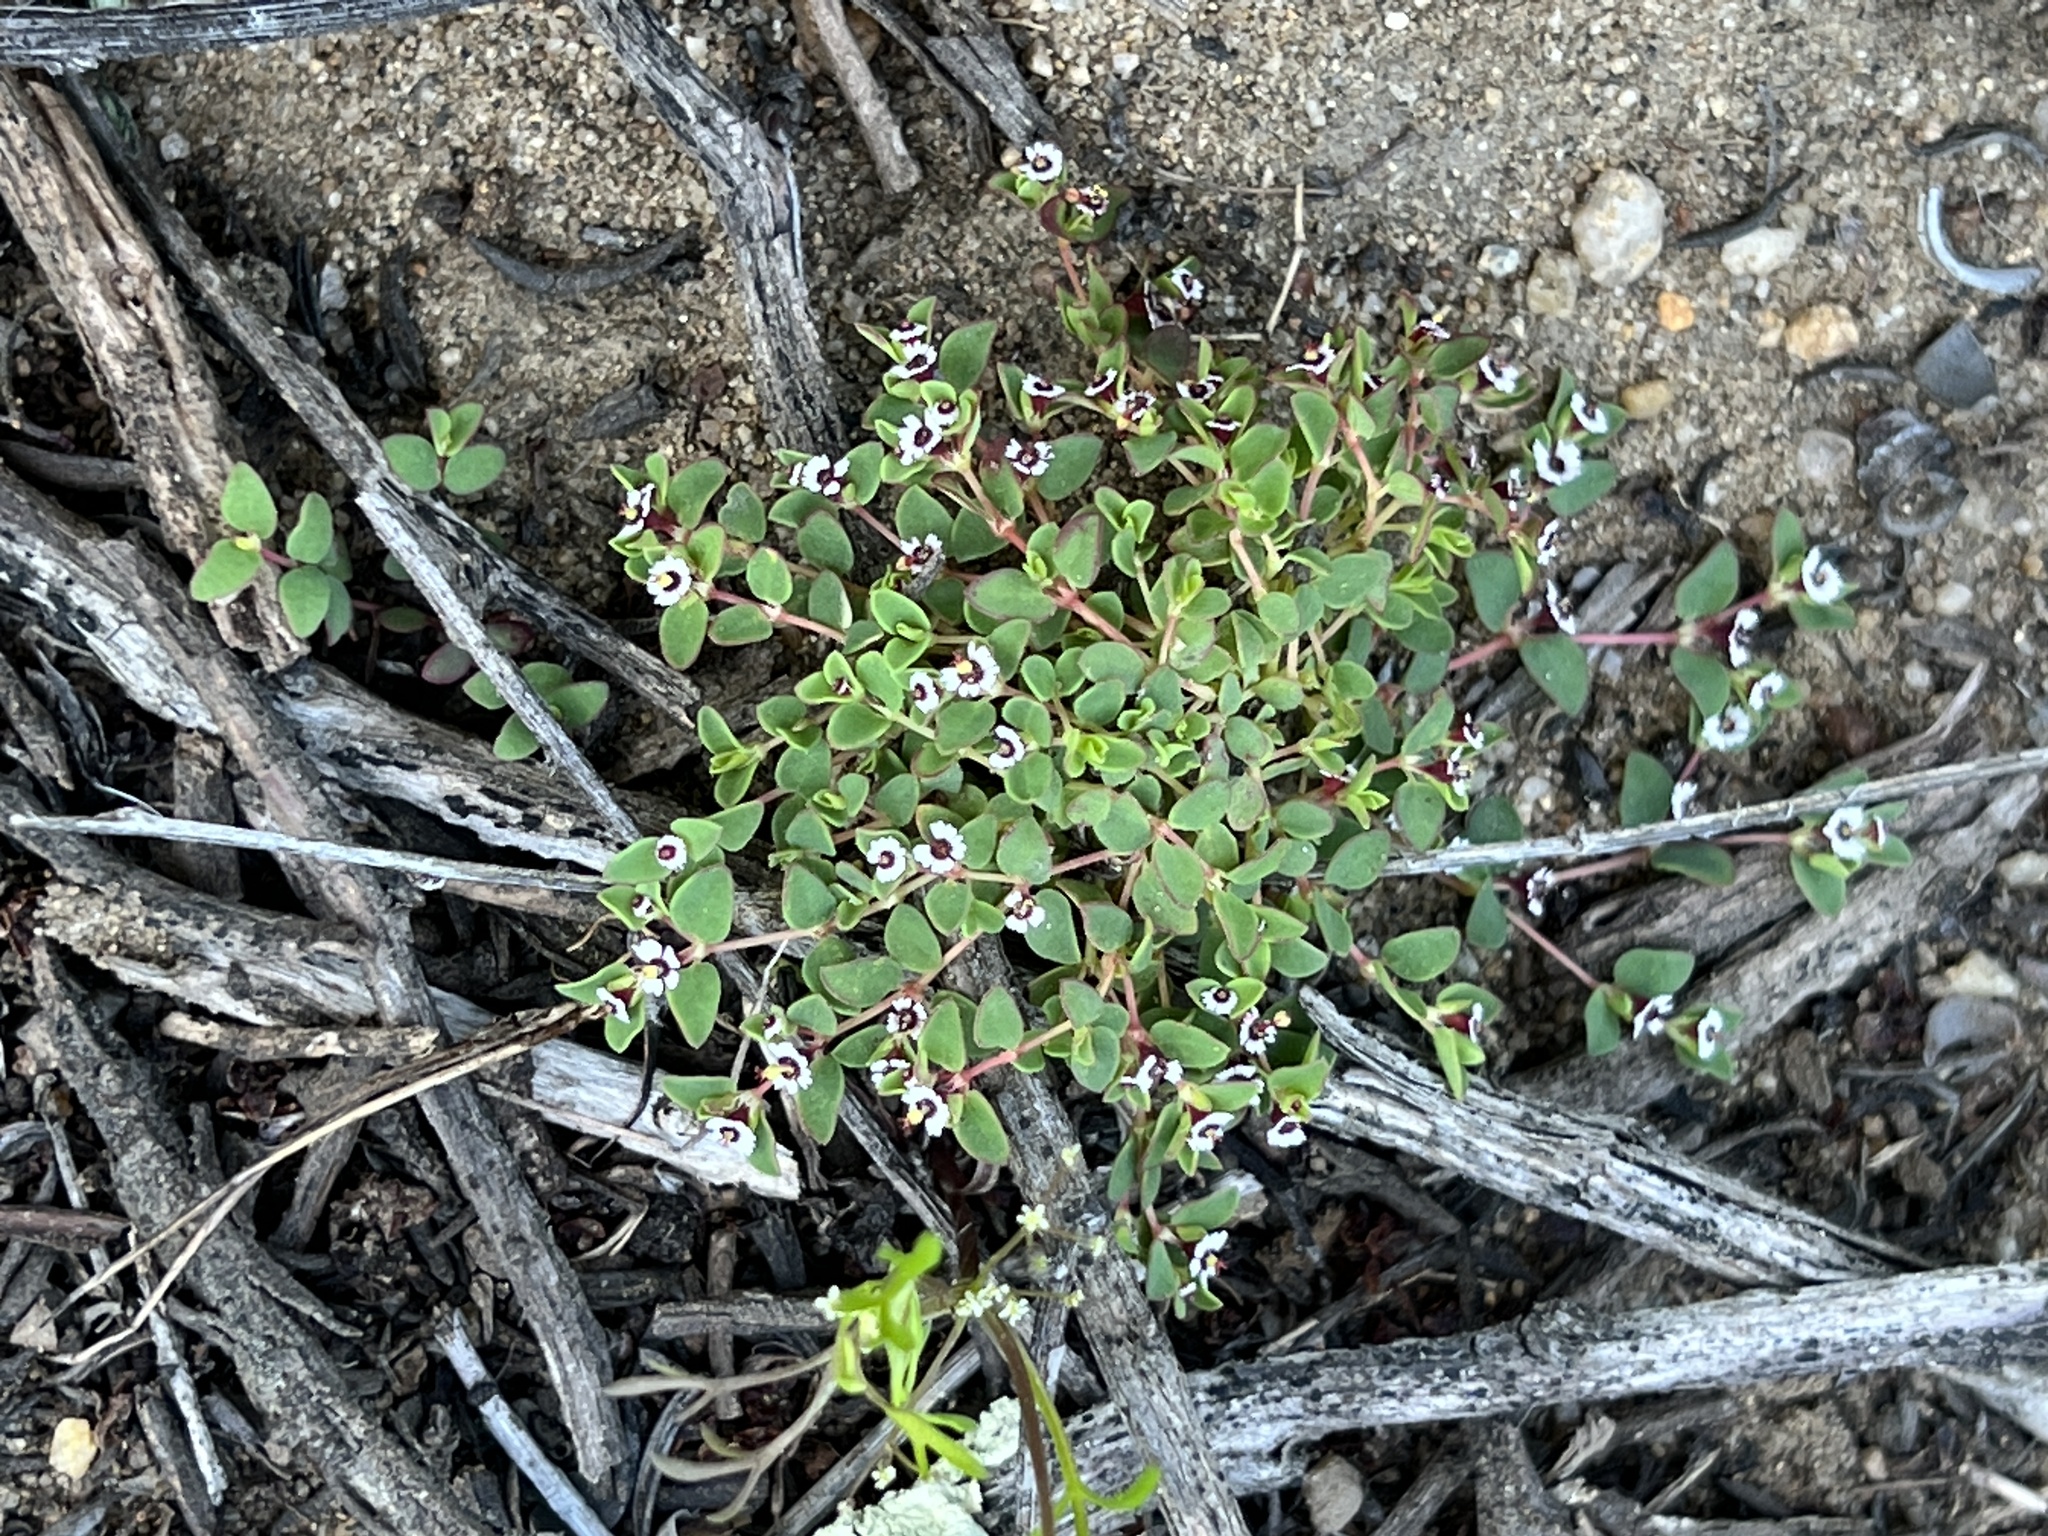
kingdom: Plantae
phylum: Tracheophyta
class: Magnoliopsida
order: Malpighiales
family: Euphorbiaceae
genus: Euphorbia
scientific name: Euphorbia polycarpa
